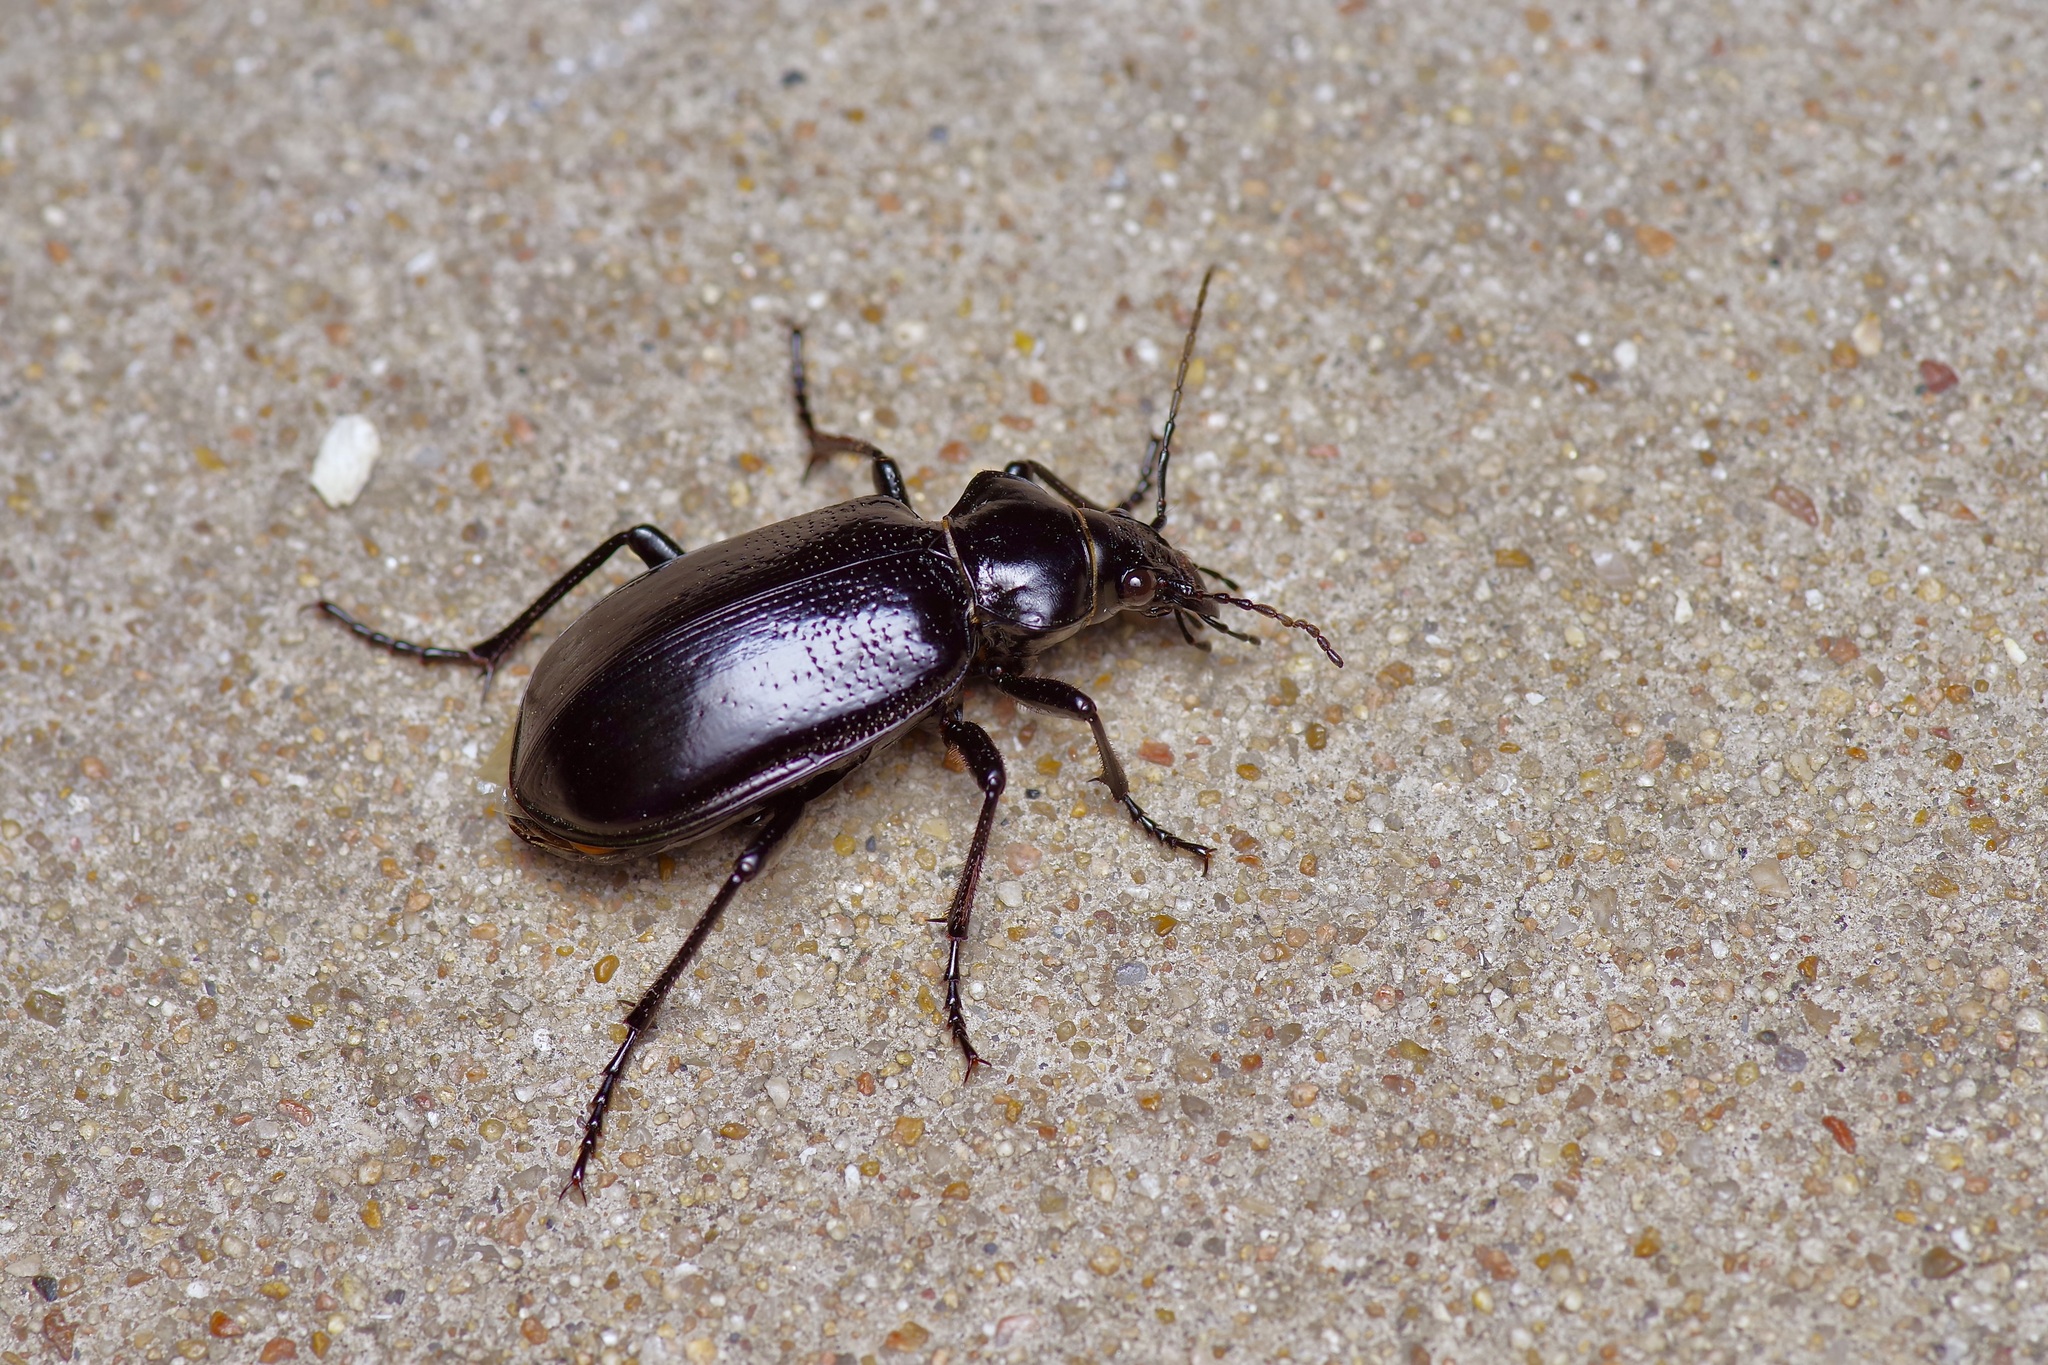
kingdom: Animalia
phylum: Arthropoda
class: Insecta
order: Coleoptera
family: Carabidae
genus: Calosoma
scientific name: Calosoma marginale
